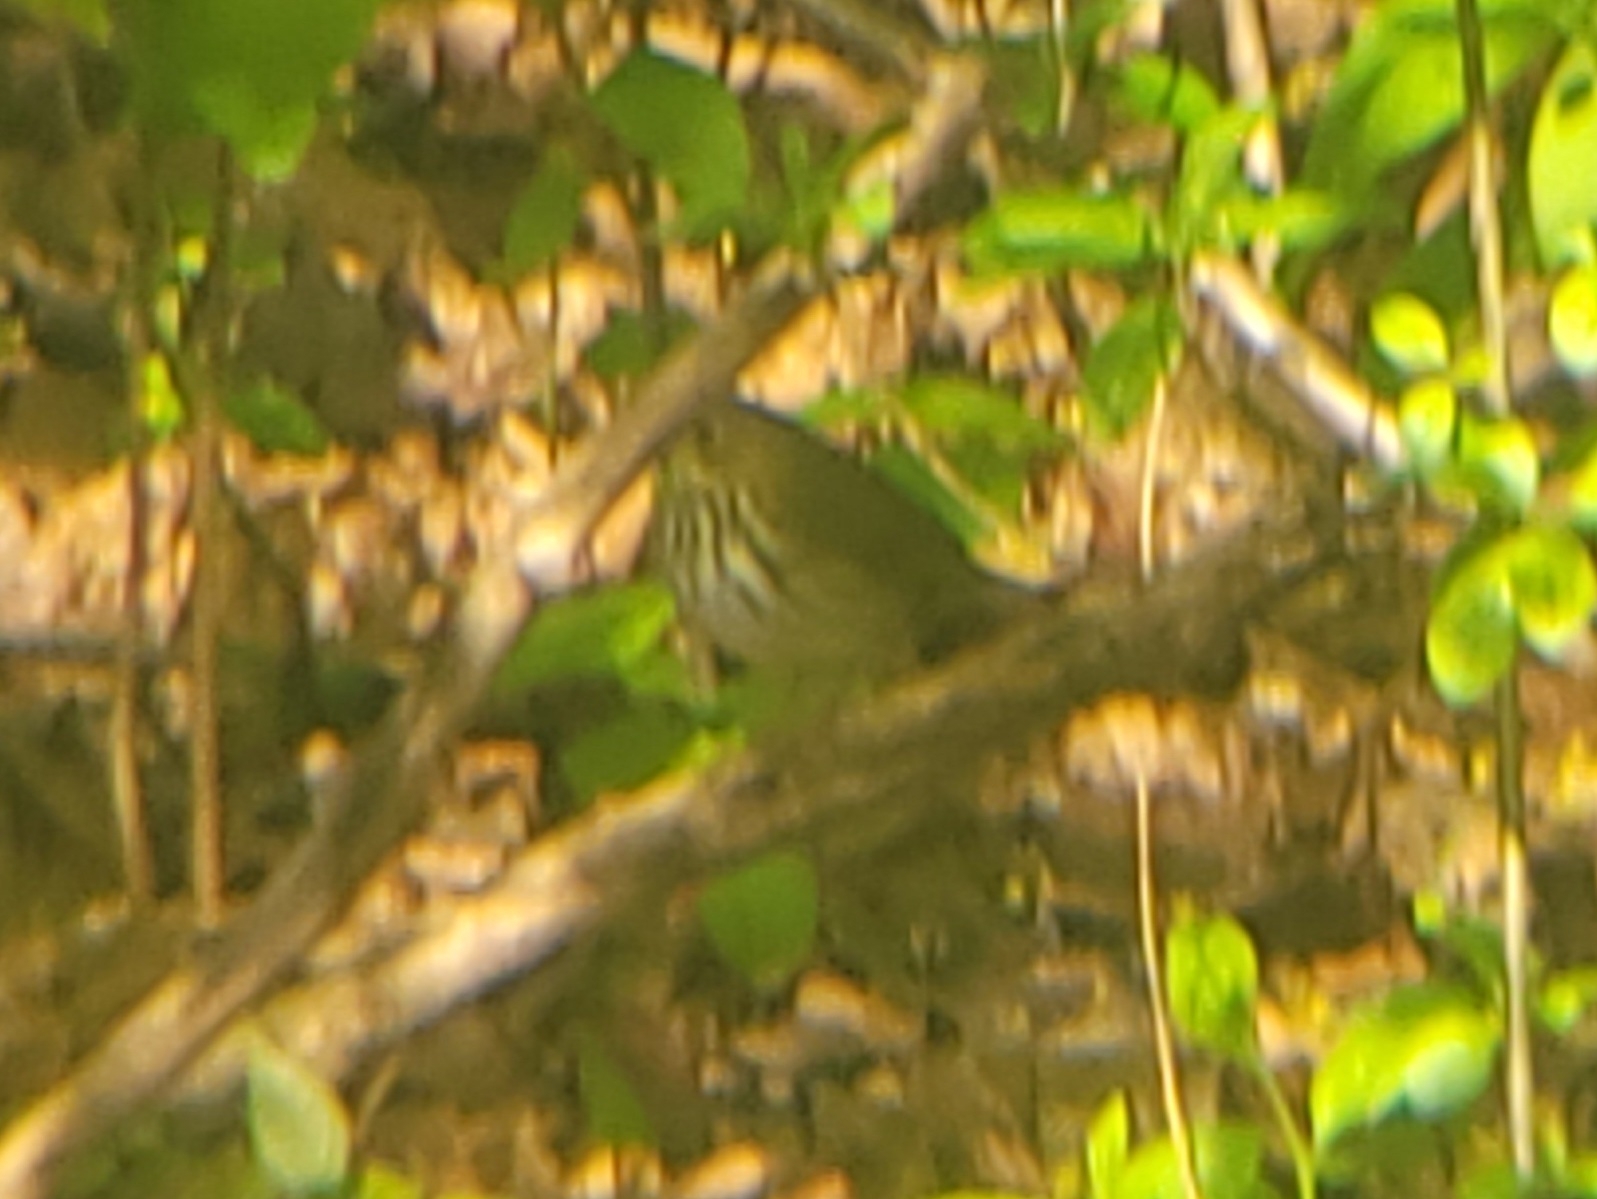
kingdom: Animalia
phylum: Chordata
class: Aves
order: Passeriformes
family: Parulidae
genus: Seiurus
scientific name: Seiurus aurocapilla
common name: Ovenbird
